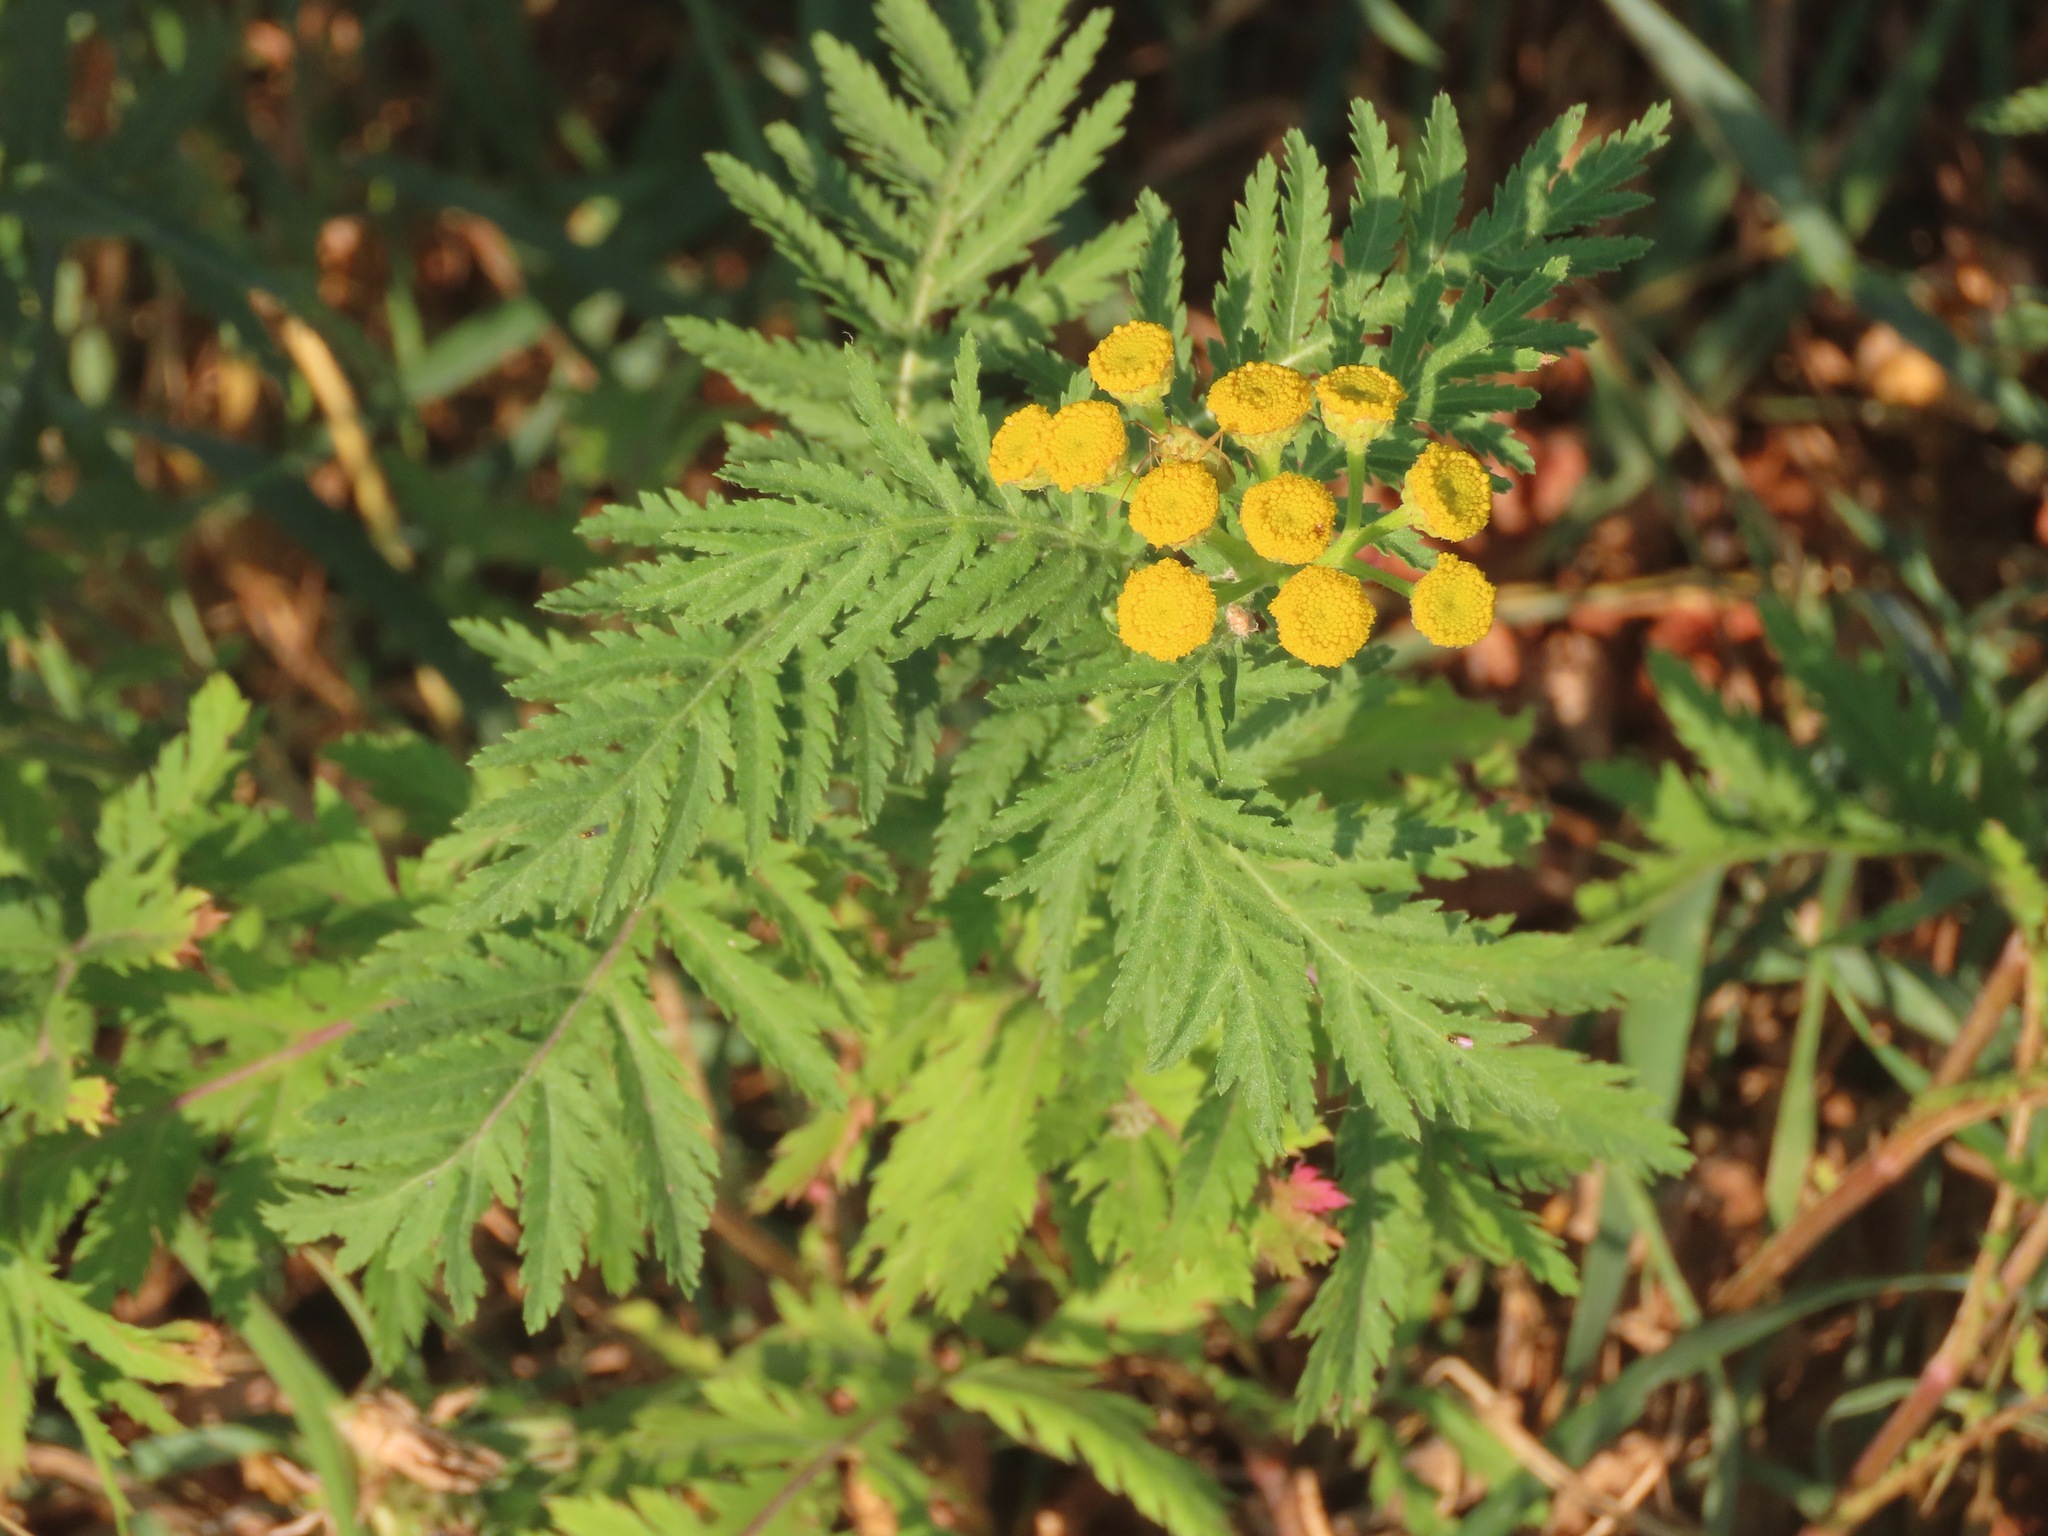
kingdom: Plantae
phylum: Tracheophyta
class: Magnoliopsida
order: Asterales
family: Asteraceae
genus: Tanacetum
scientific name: Tanacetum vulgare
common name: Common tansy
